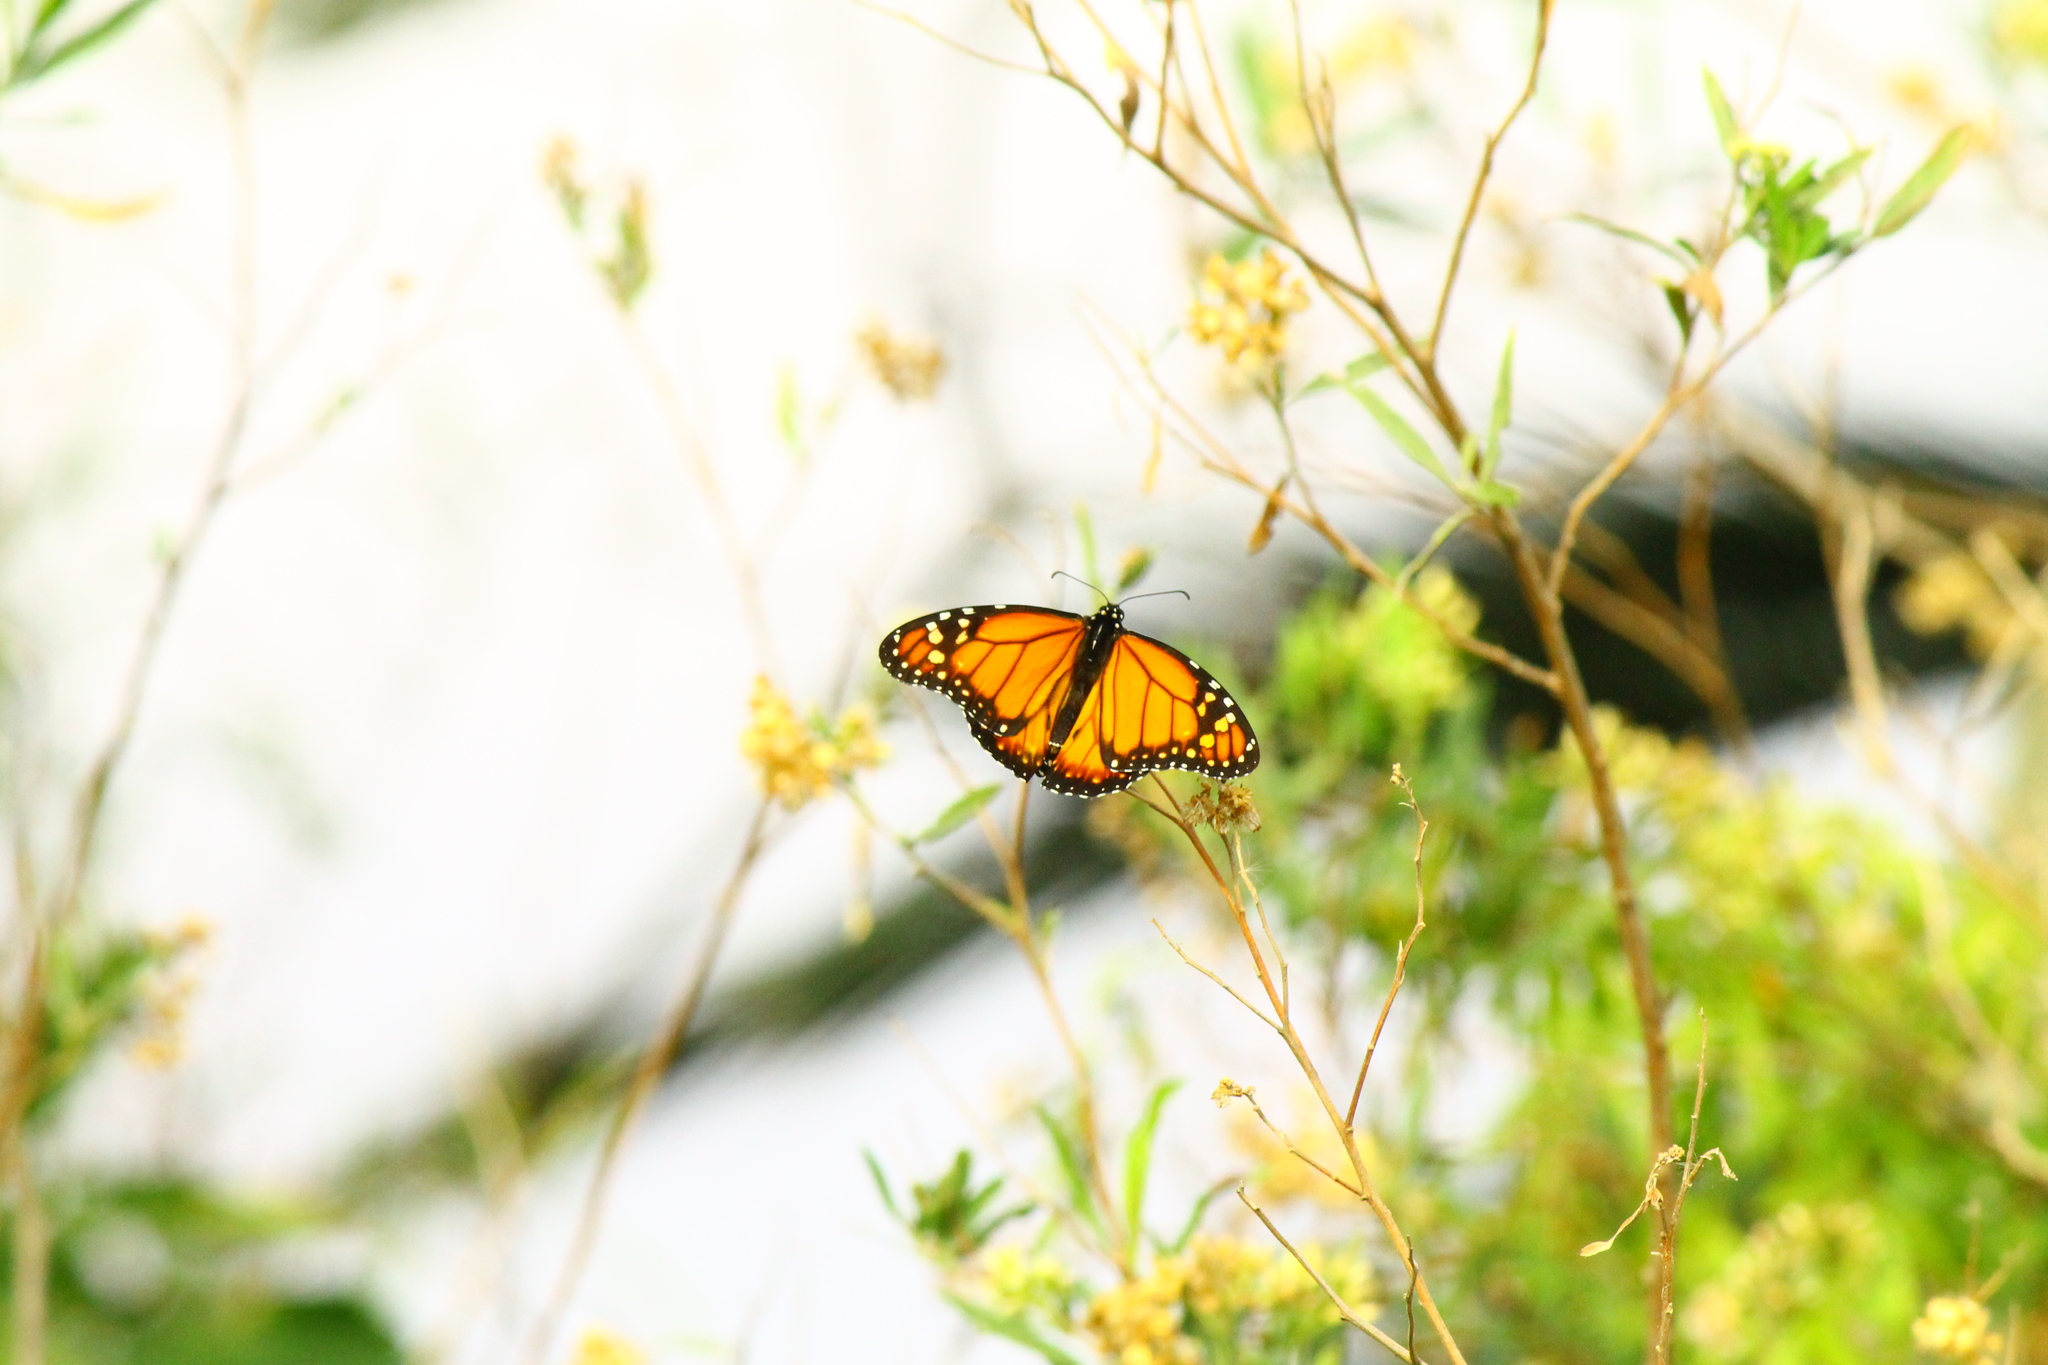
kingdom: Animalia
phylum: Arthropoda
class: Insecta
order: Lepidoptera
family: Nymphalidae
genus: Danaus
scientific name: Danaus erippus
